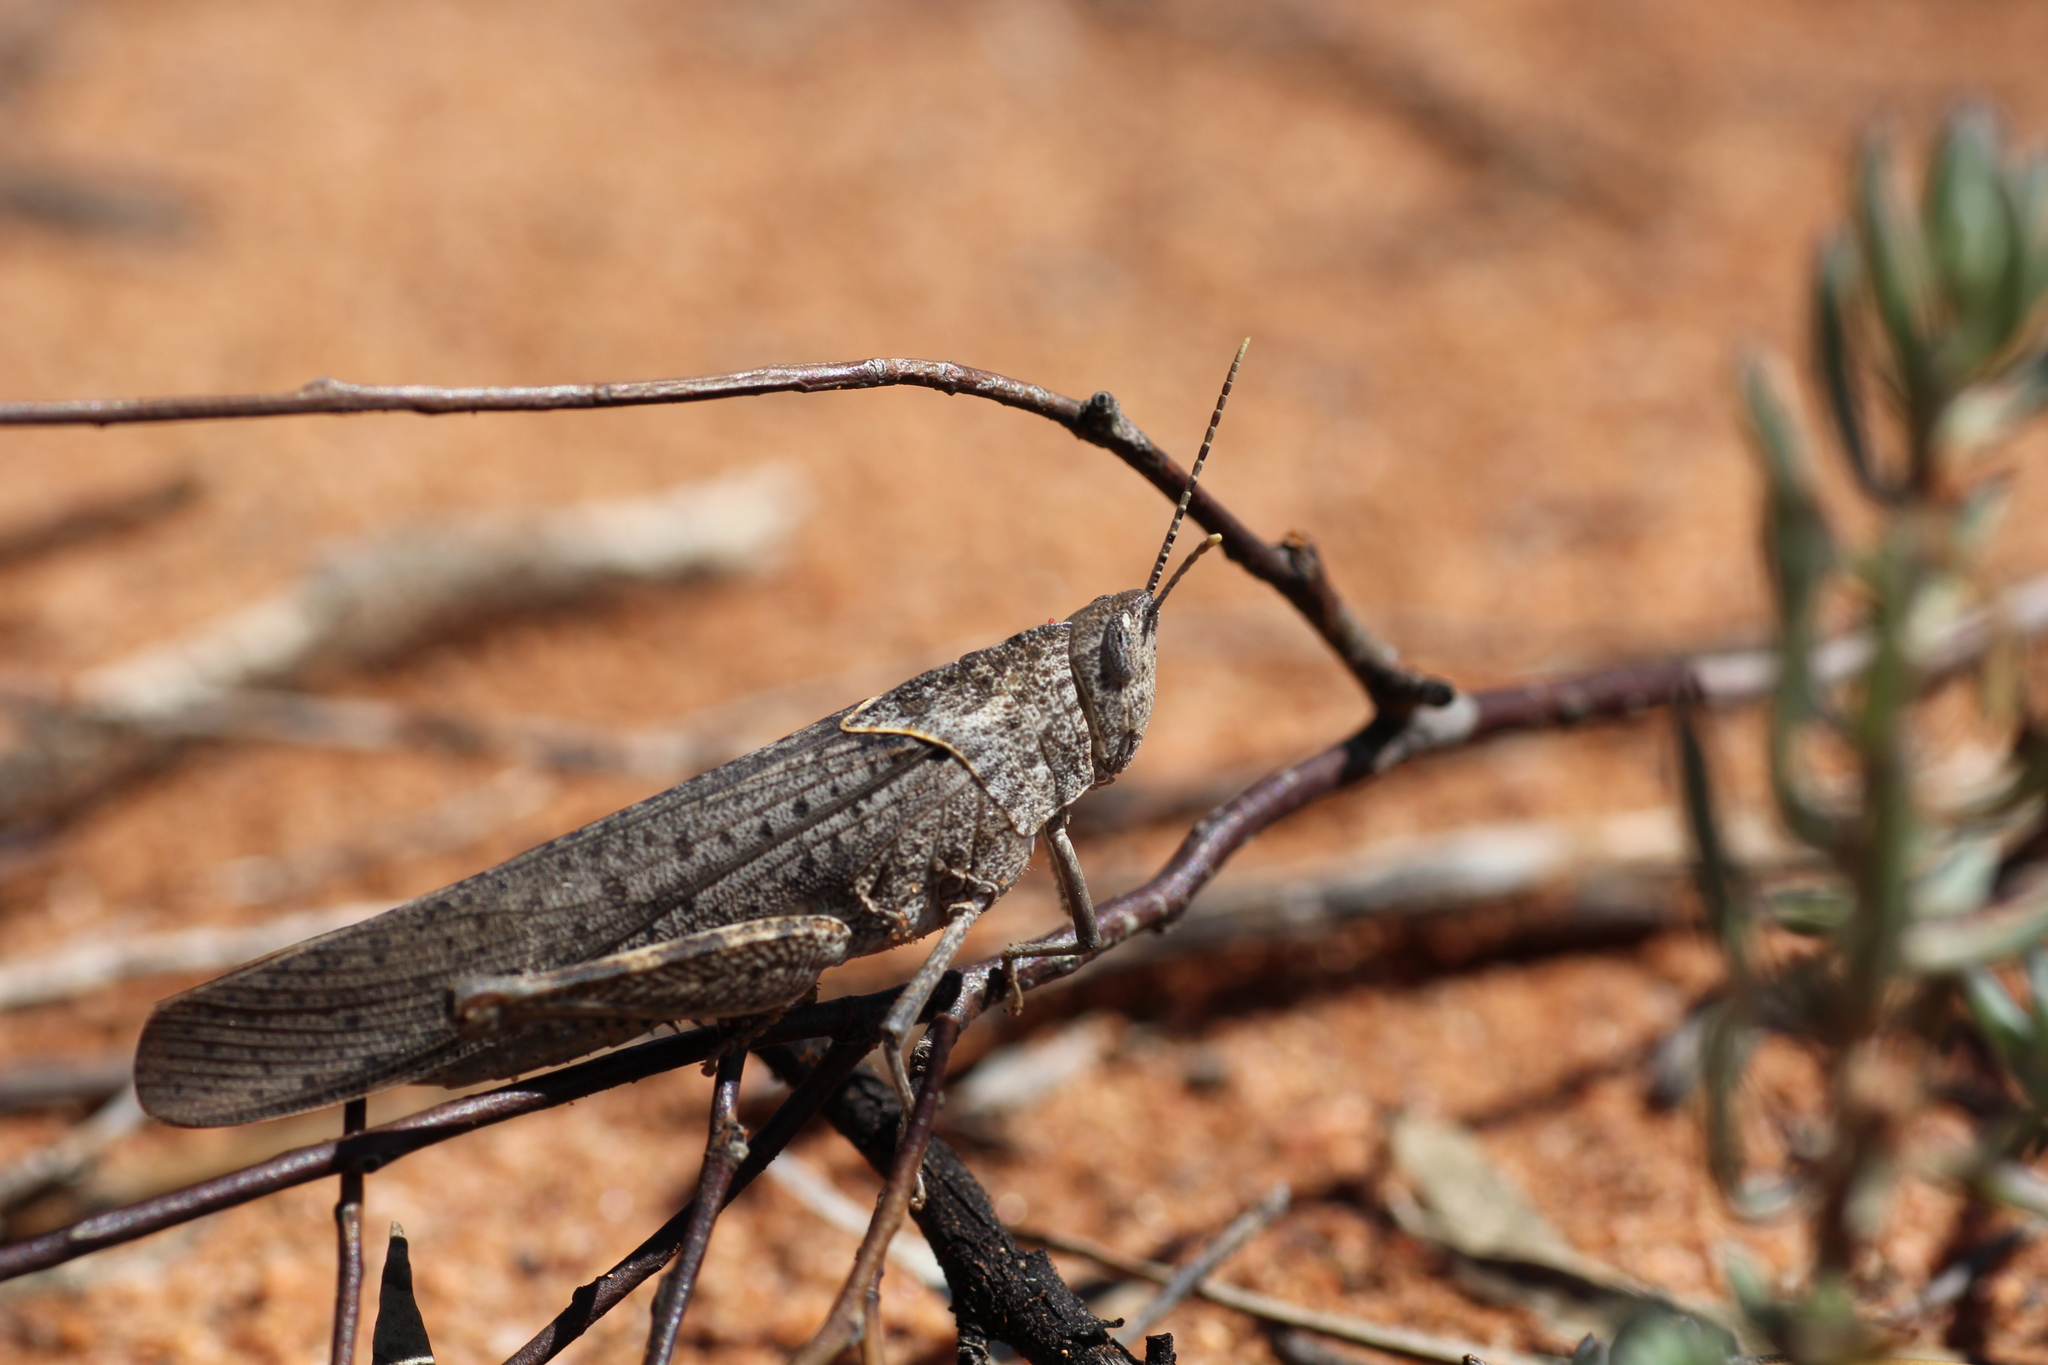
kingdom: Animalia
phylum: Arthropoda
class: Insecta
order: Orthoptera
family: Acrididae
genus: Goniaea
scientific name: Goniaea vocans
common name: Slender gumleaf grasshopper
